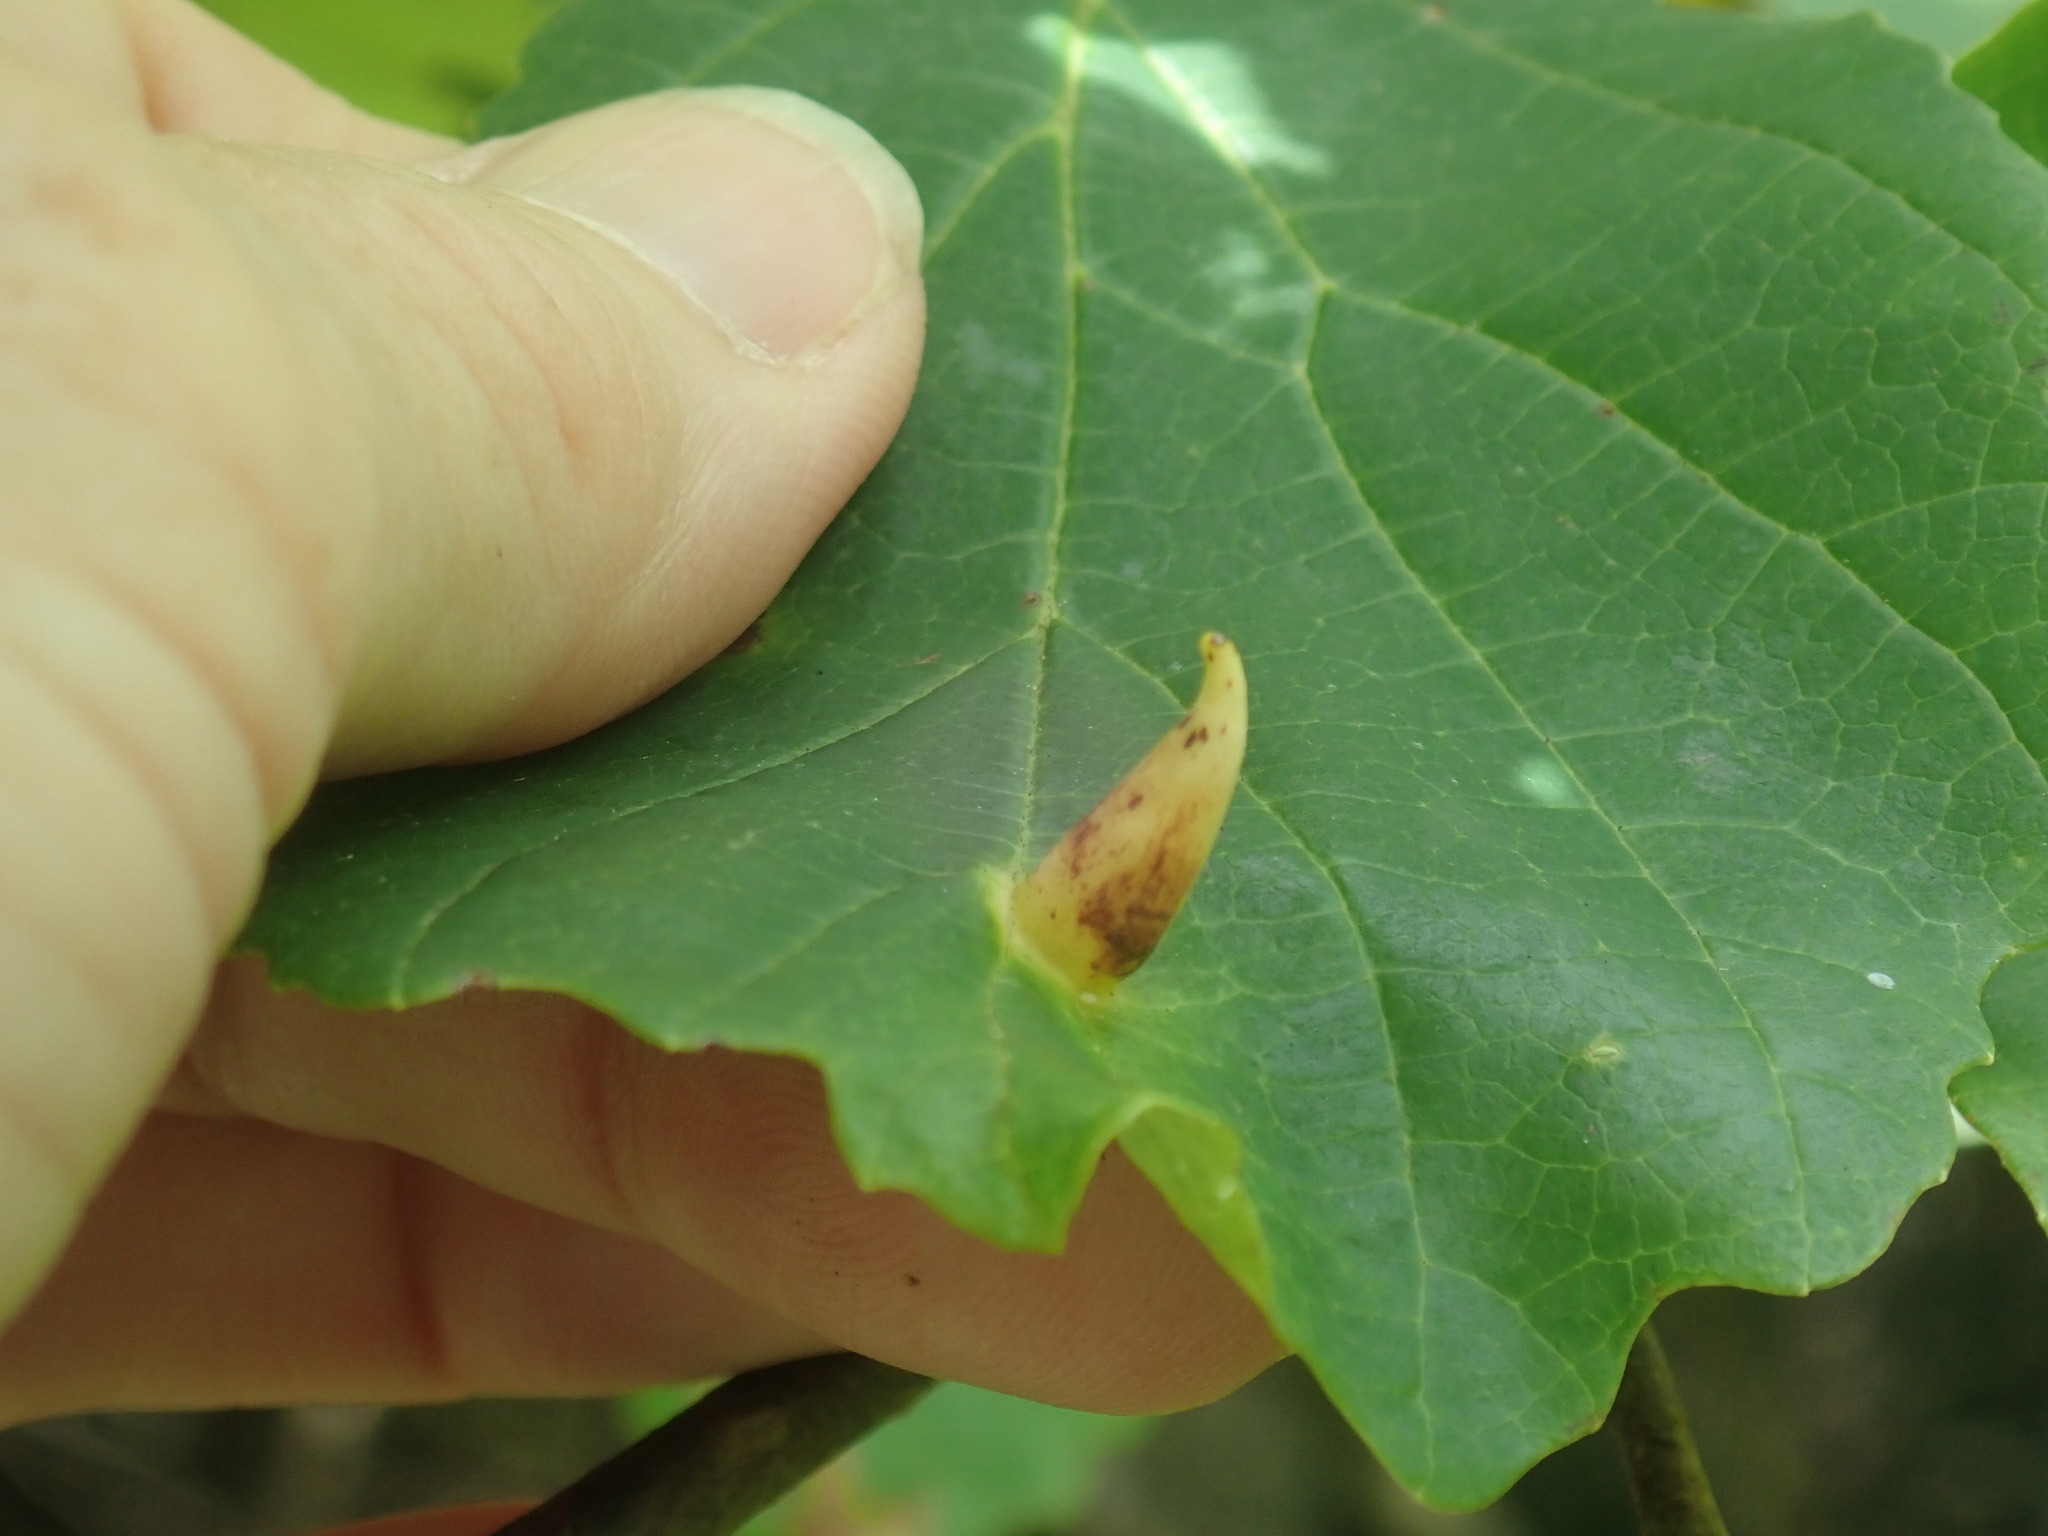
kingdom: Animalia
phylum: Arthropoda
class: Insecta
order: Hemiptera
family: Aphididae
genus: Hormaphis
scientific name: Hormaphis hamamelidis
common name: Witch-hazel cone gall aphid
